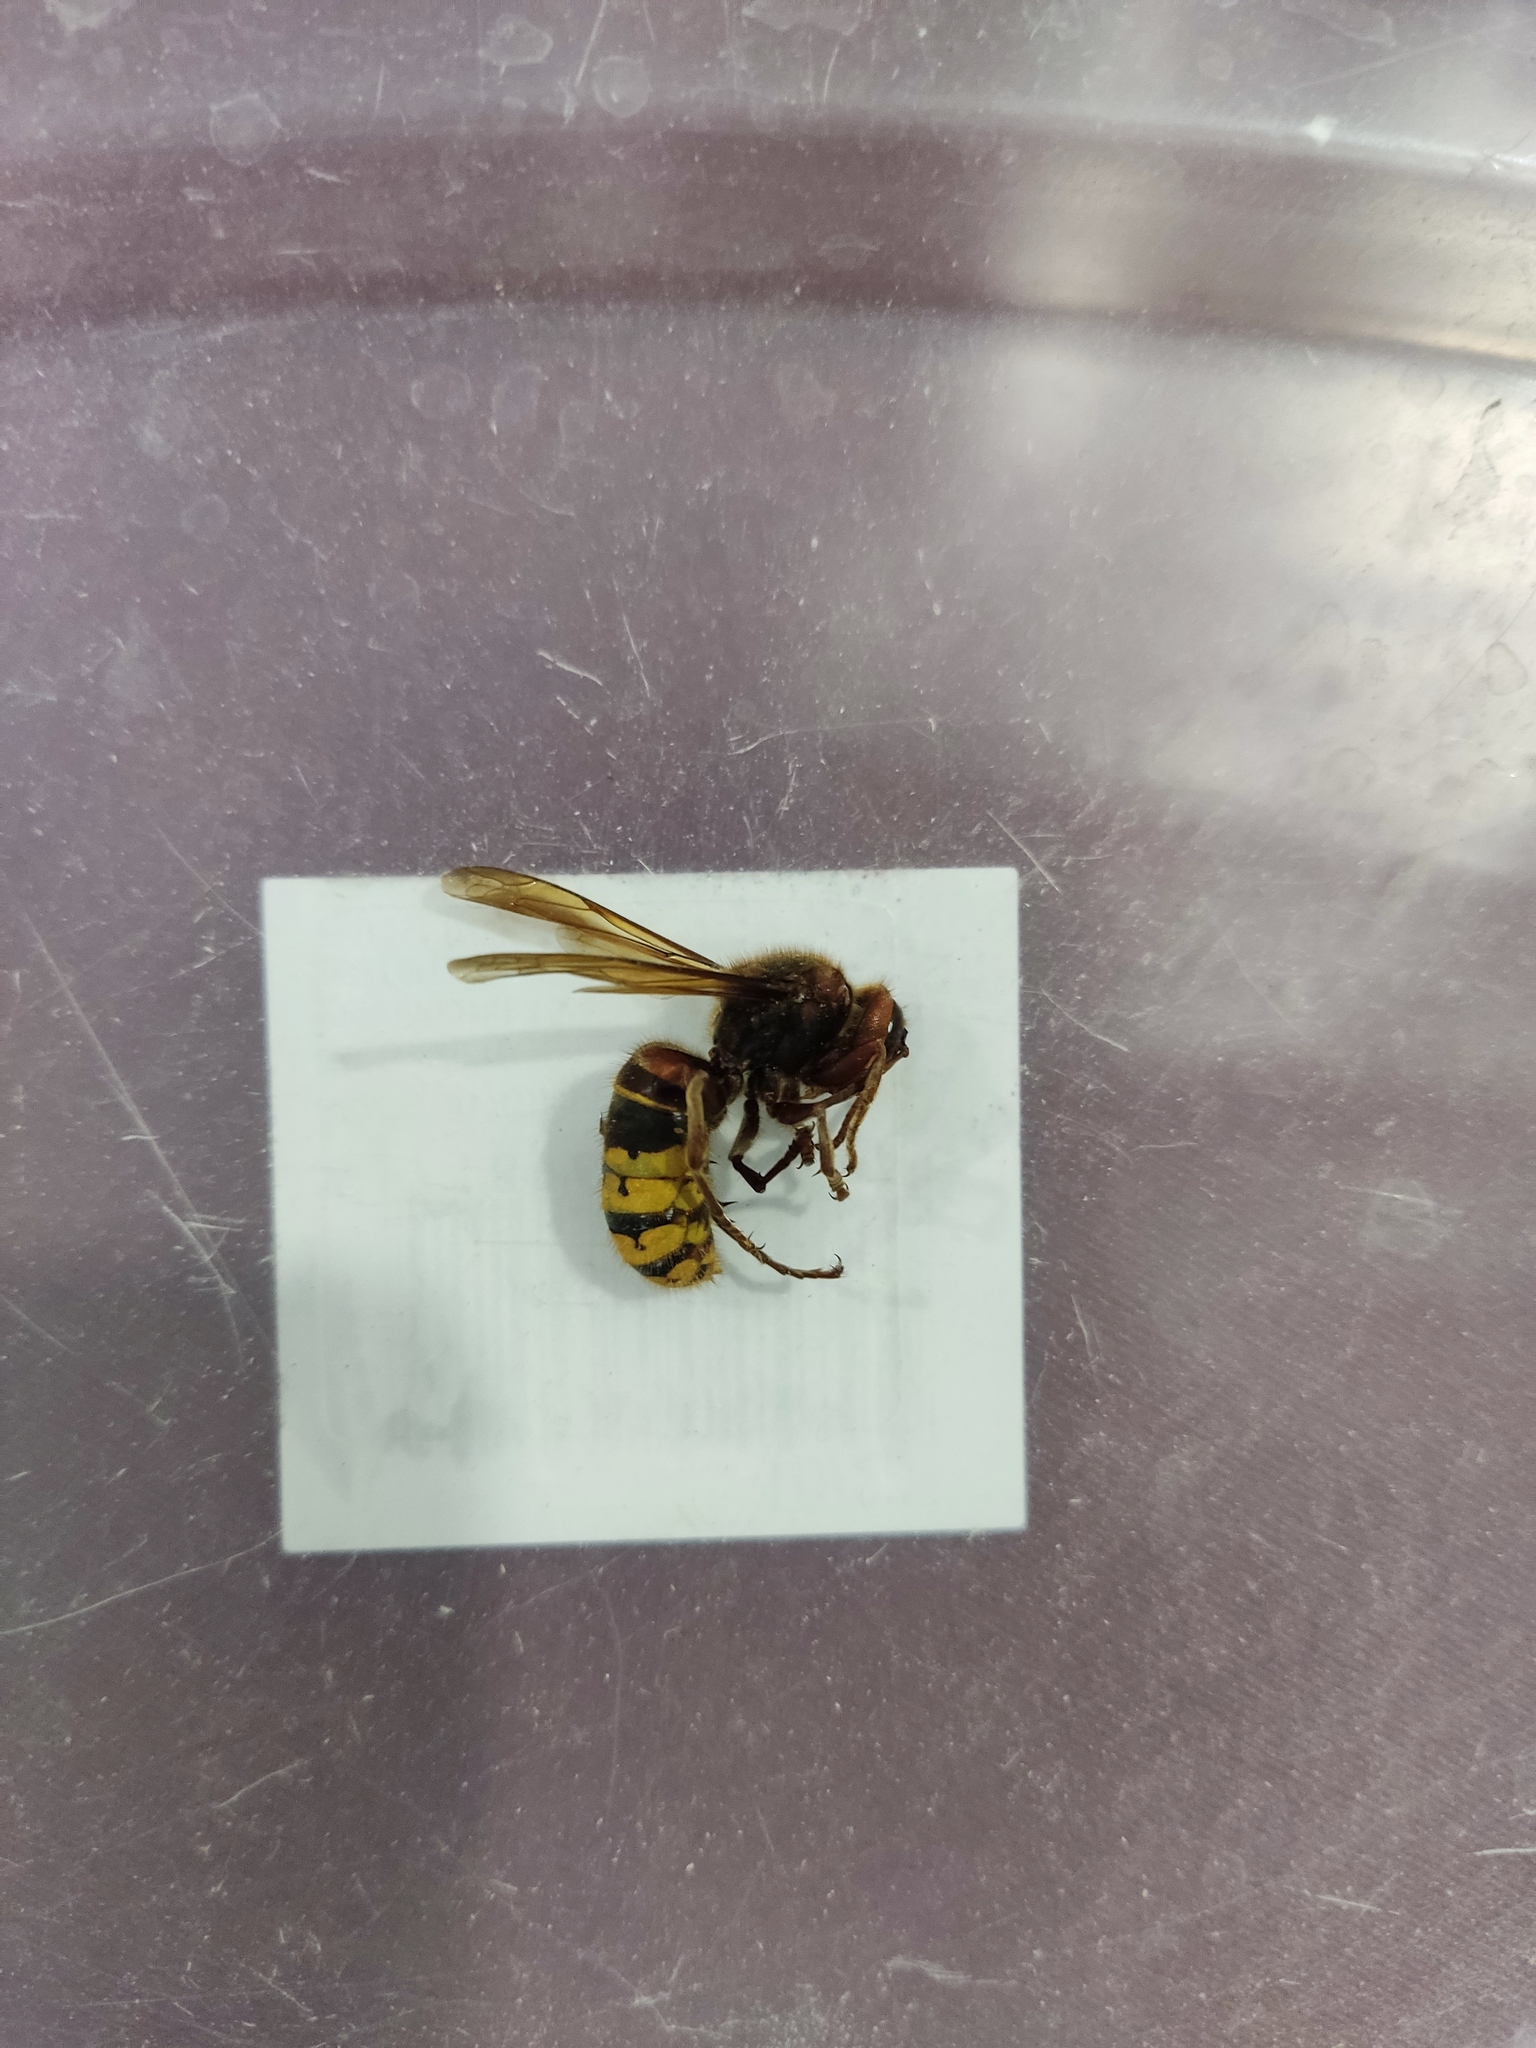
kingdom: Animalia
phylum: Arthropoda
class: Insecta
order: Hymenoptera
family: Vespidae
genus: Vespa
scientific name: Vespa crabro
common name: Hornet
